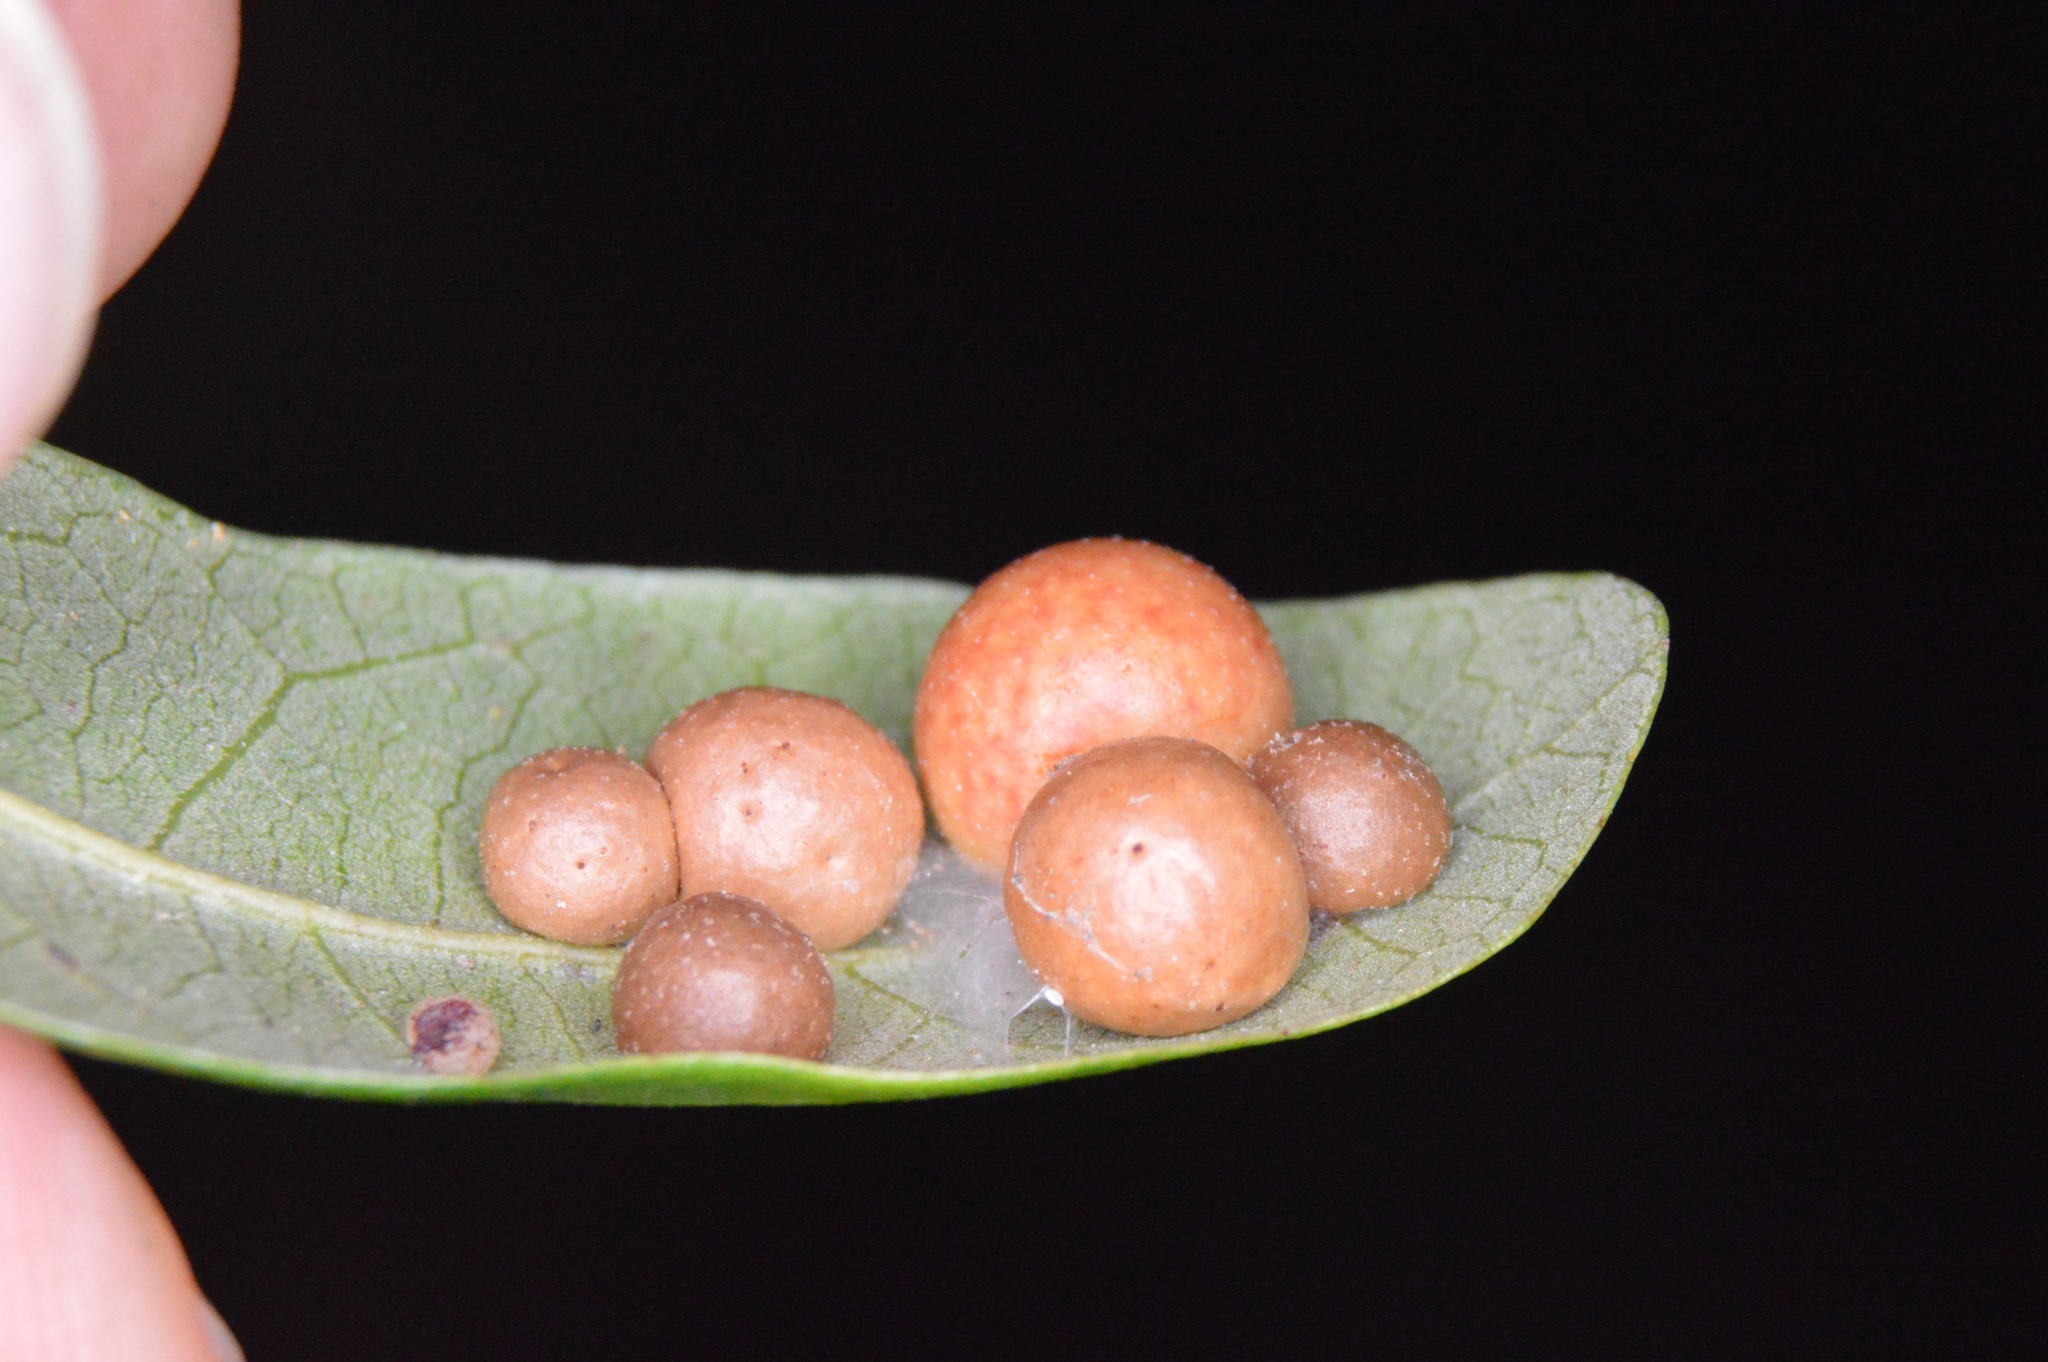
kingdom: Animalia
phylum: Arthropoda
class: Insecta
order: Hymenoptera
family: Cynipidae
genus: Belonocnema
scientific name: Belonocnema kinseyi
